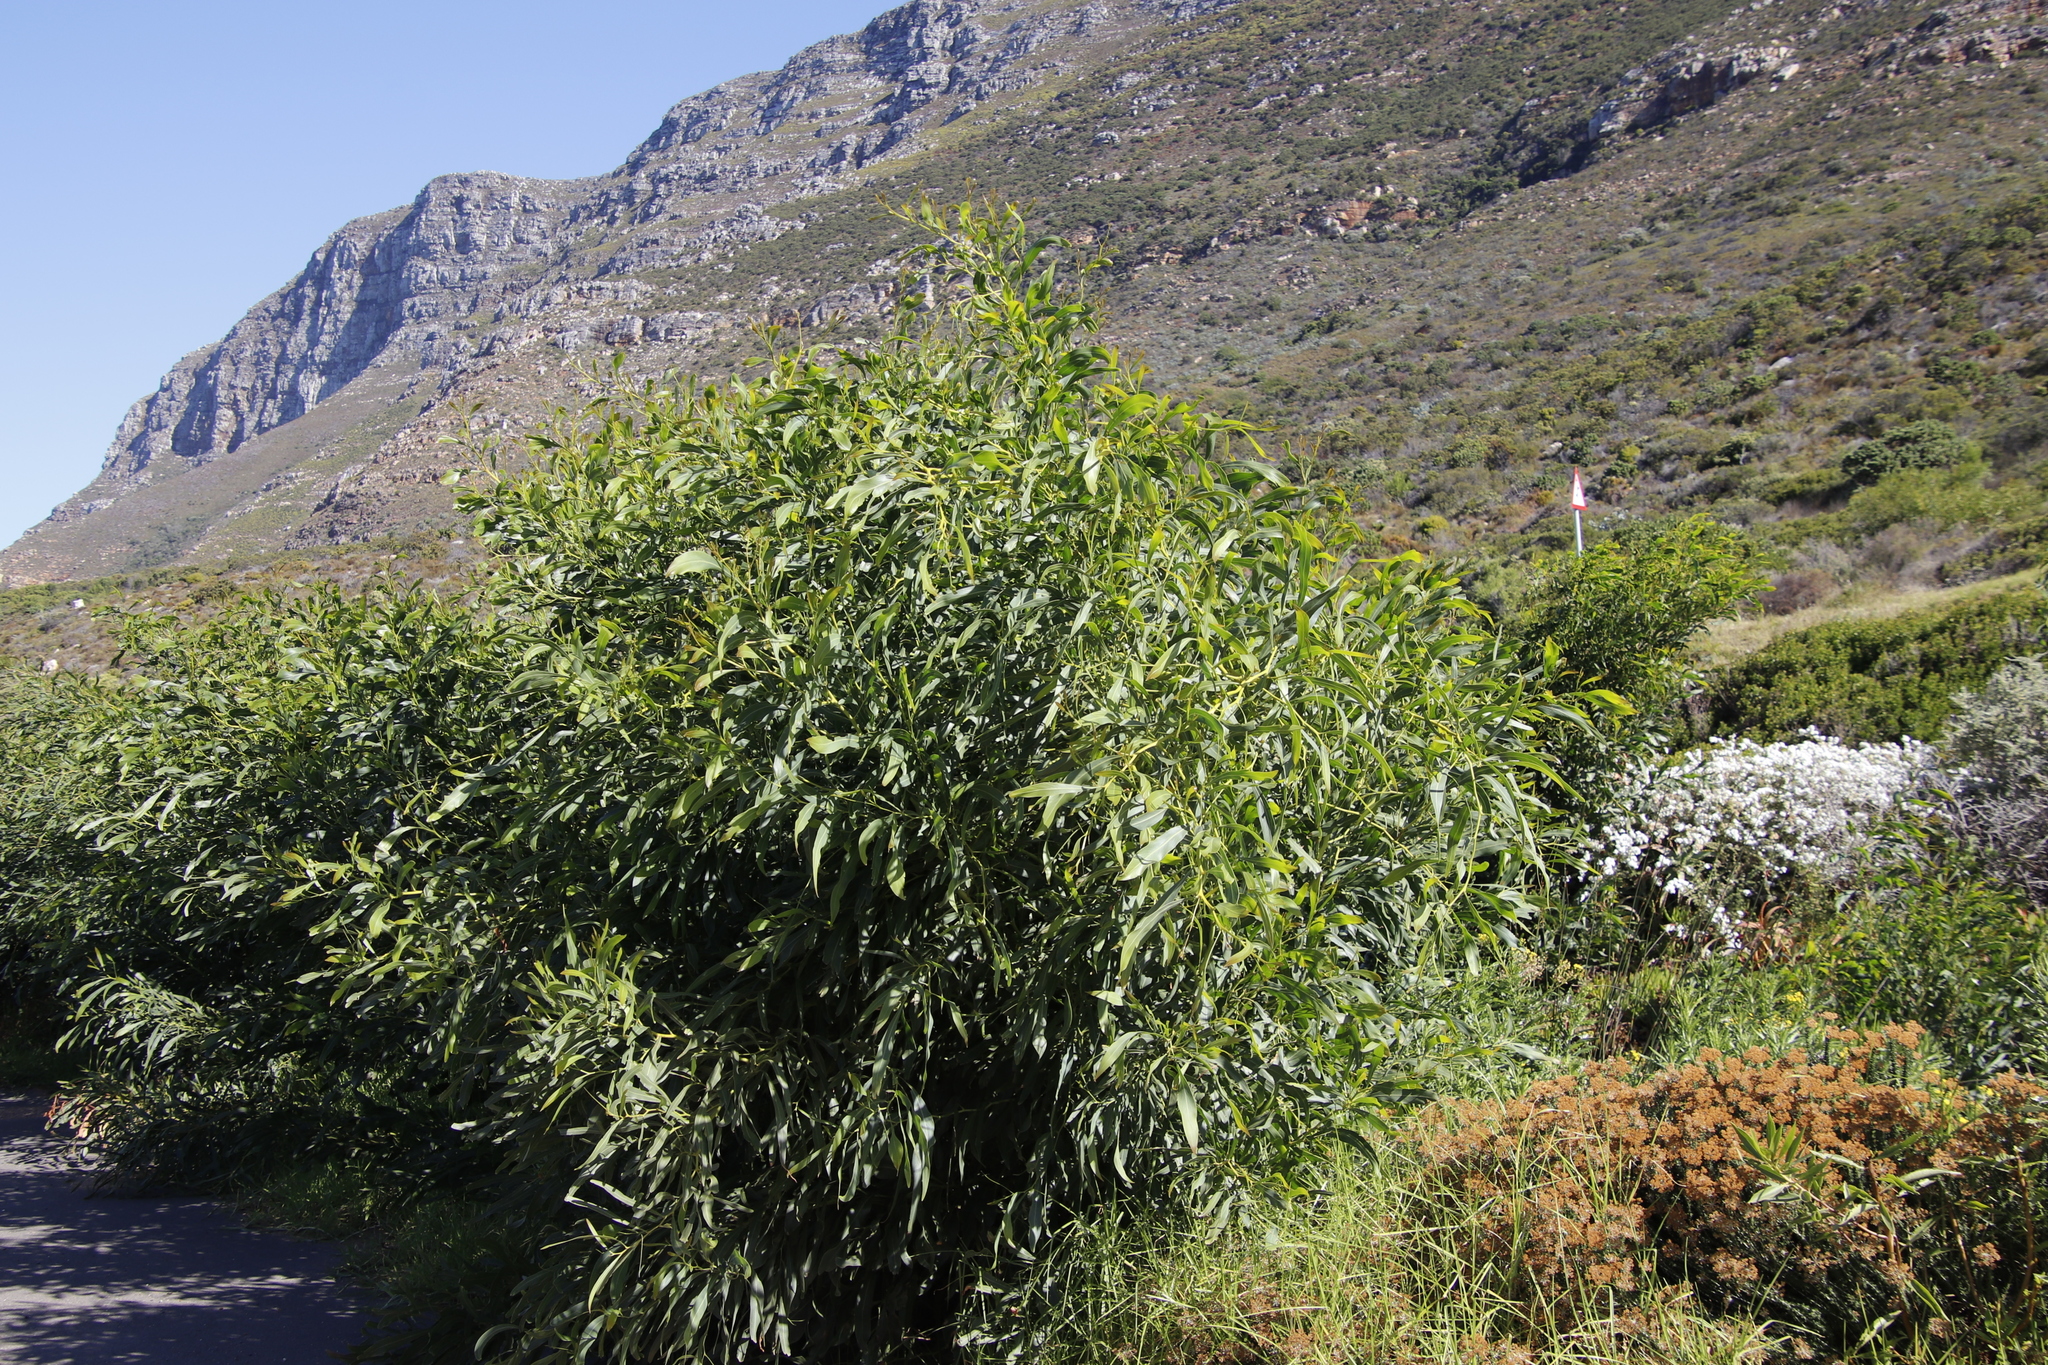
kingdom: Plantae
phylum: Tracheophyta
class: Magnoliopsida
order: Fabales
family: Fabaceae
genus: Acacia
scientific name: Acacia saligna
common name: Orange wattle
